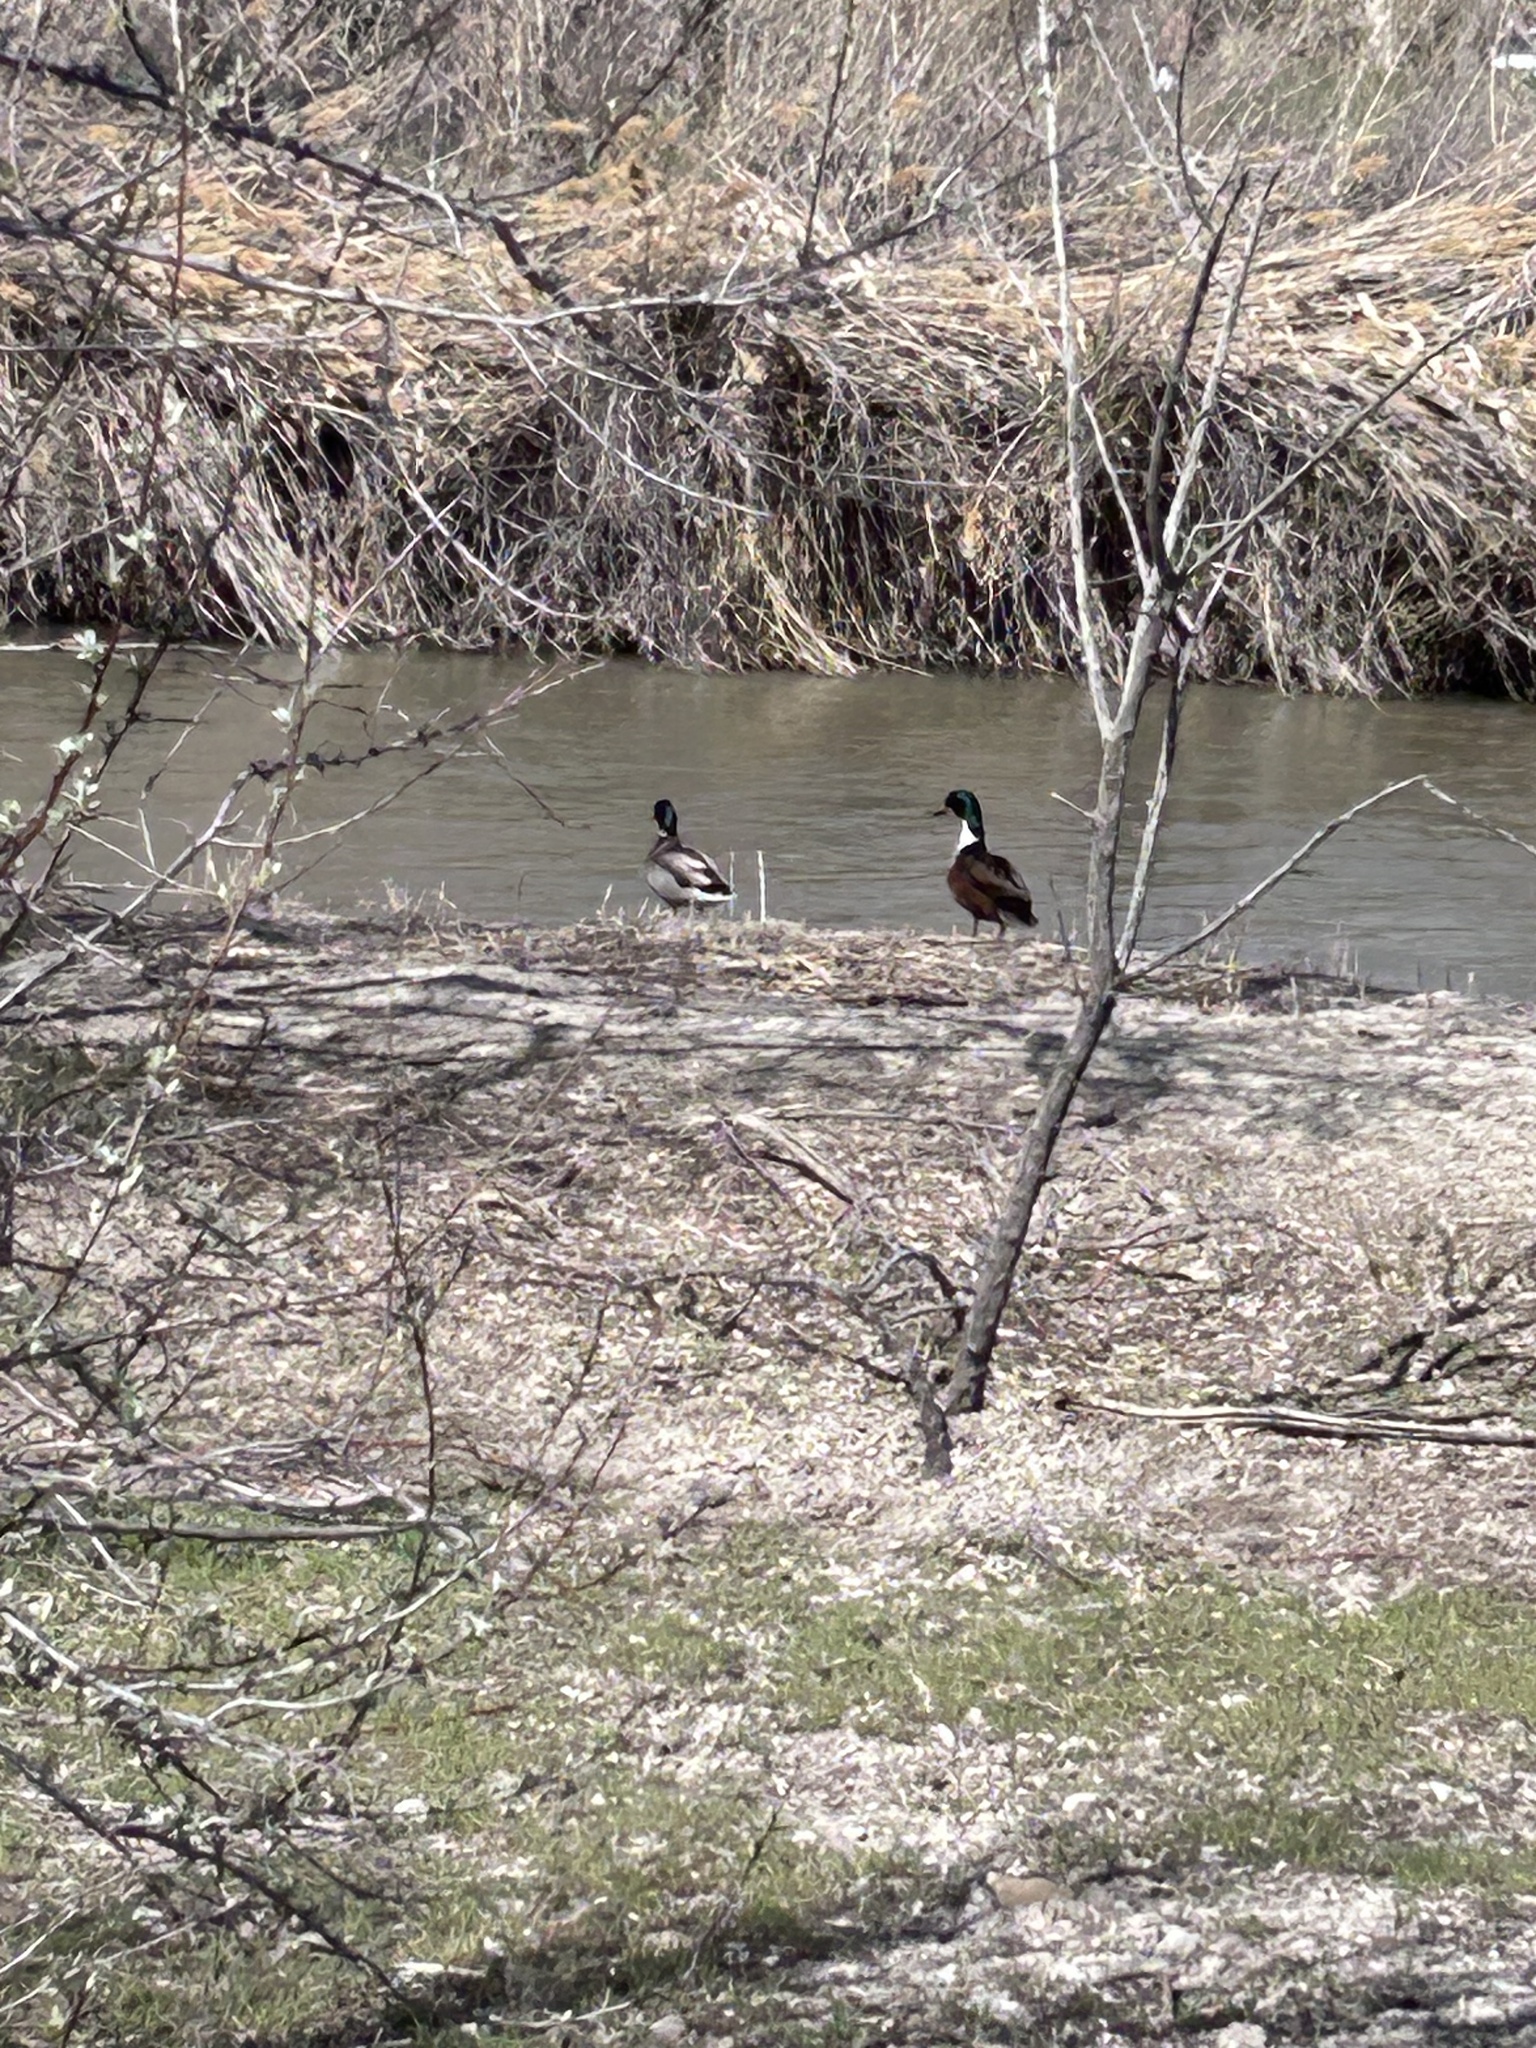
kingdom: Animalia
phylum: Chordata
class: Aves
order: Anseriformes
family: Anatidae
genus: Anas
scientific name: Anas platyrhynchos
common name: Mallard
